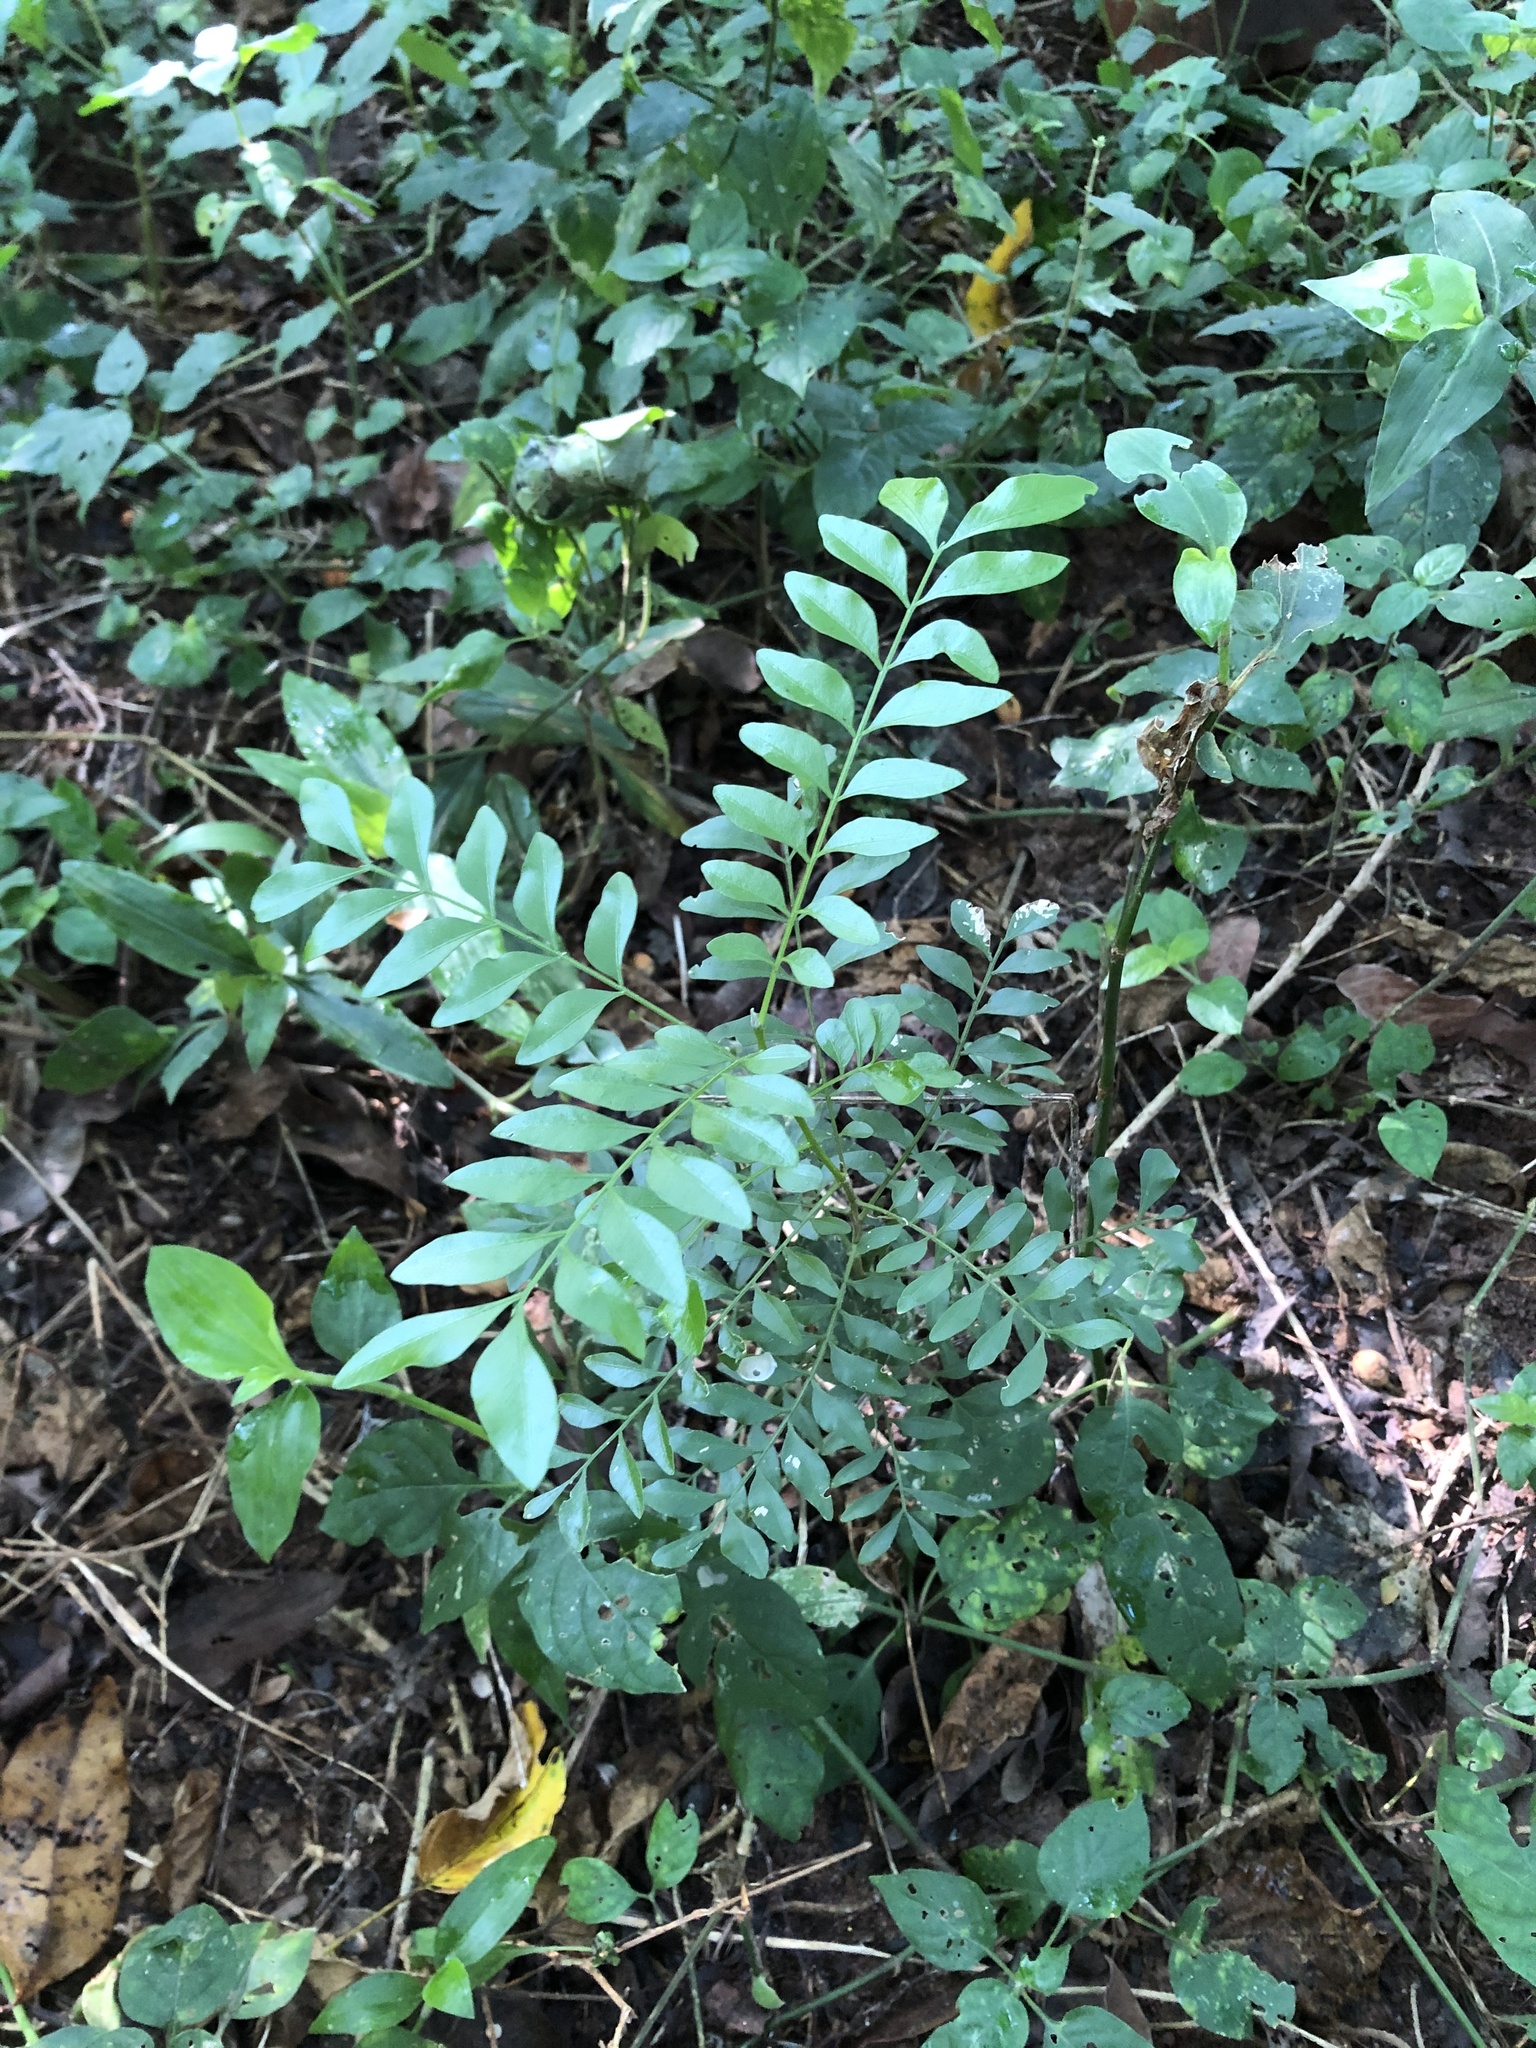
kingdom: Plantae
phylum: Tracheophyta
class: Magnoliopsida
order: Sapindales
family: Rutaceae
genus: Clausena
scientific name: Clausena anisata
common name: Horsewood
